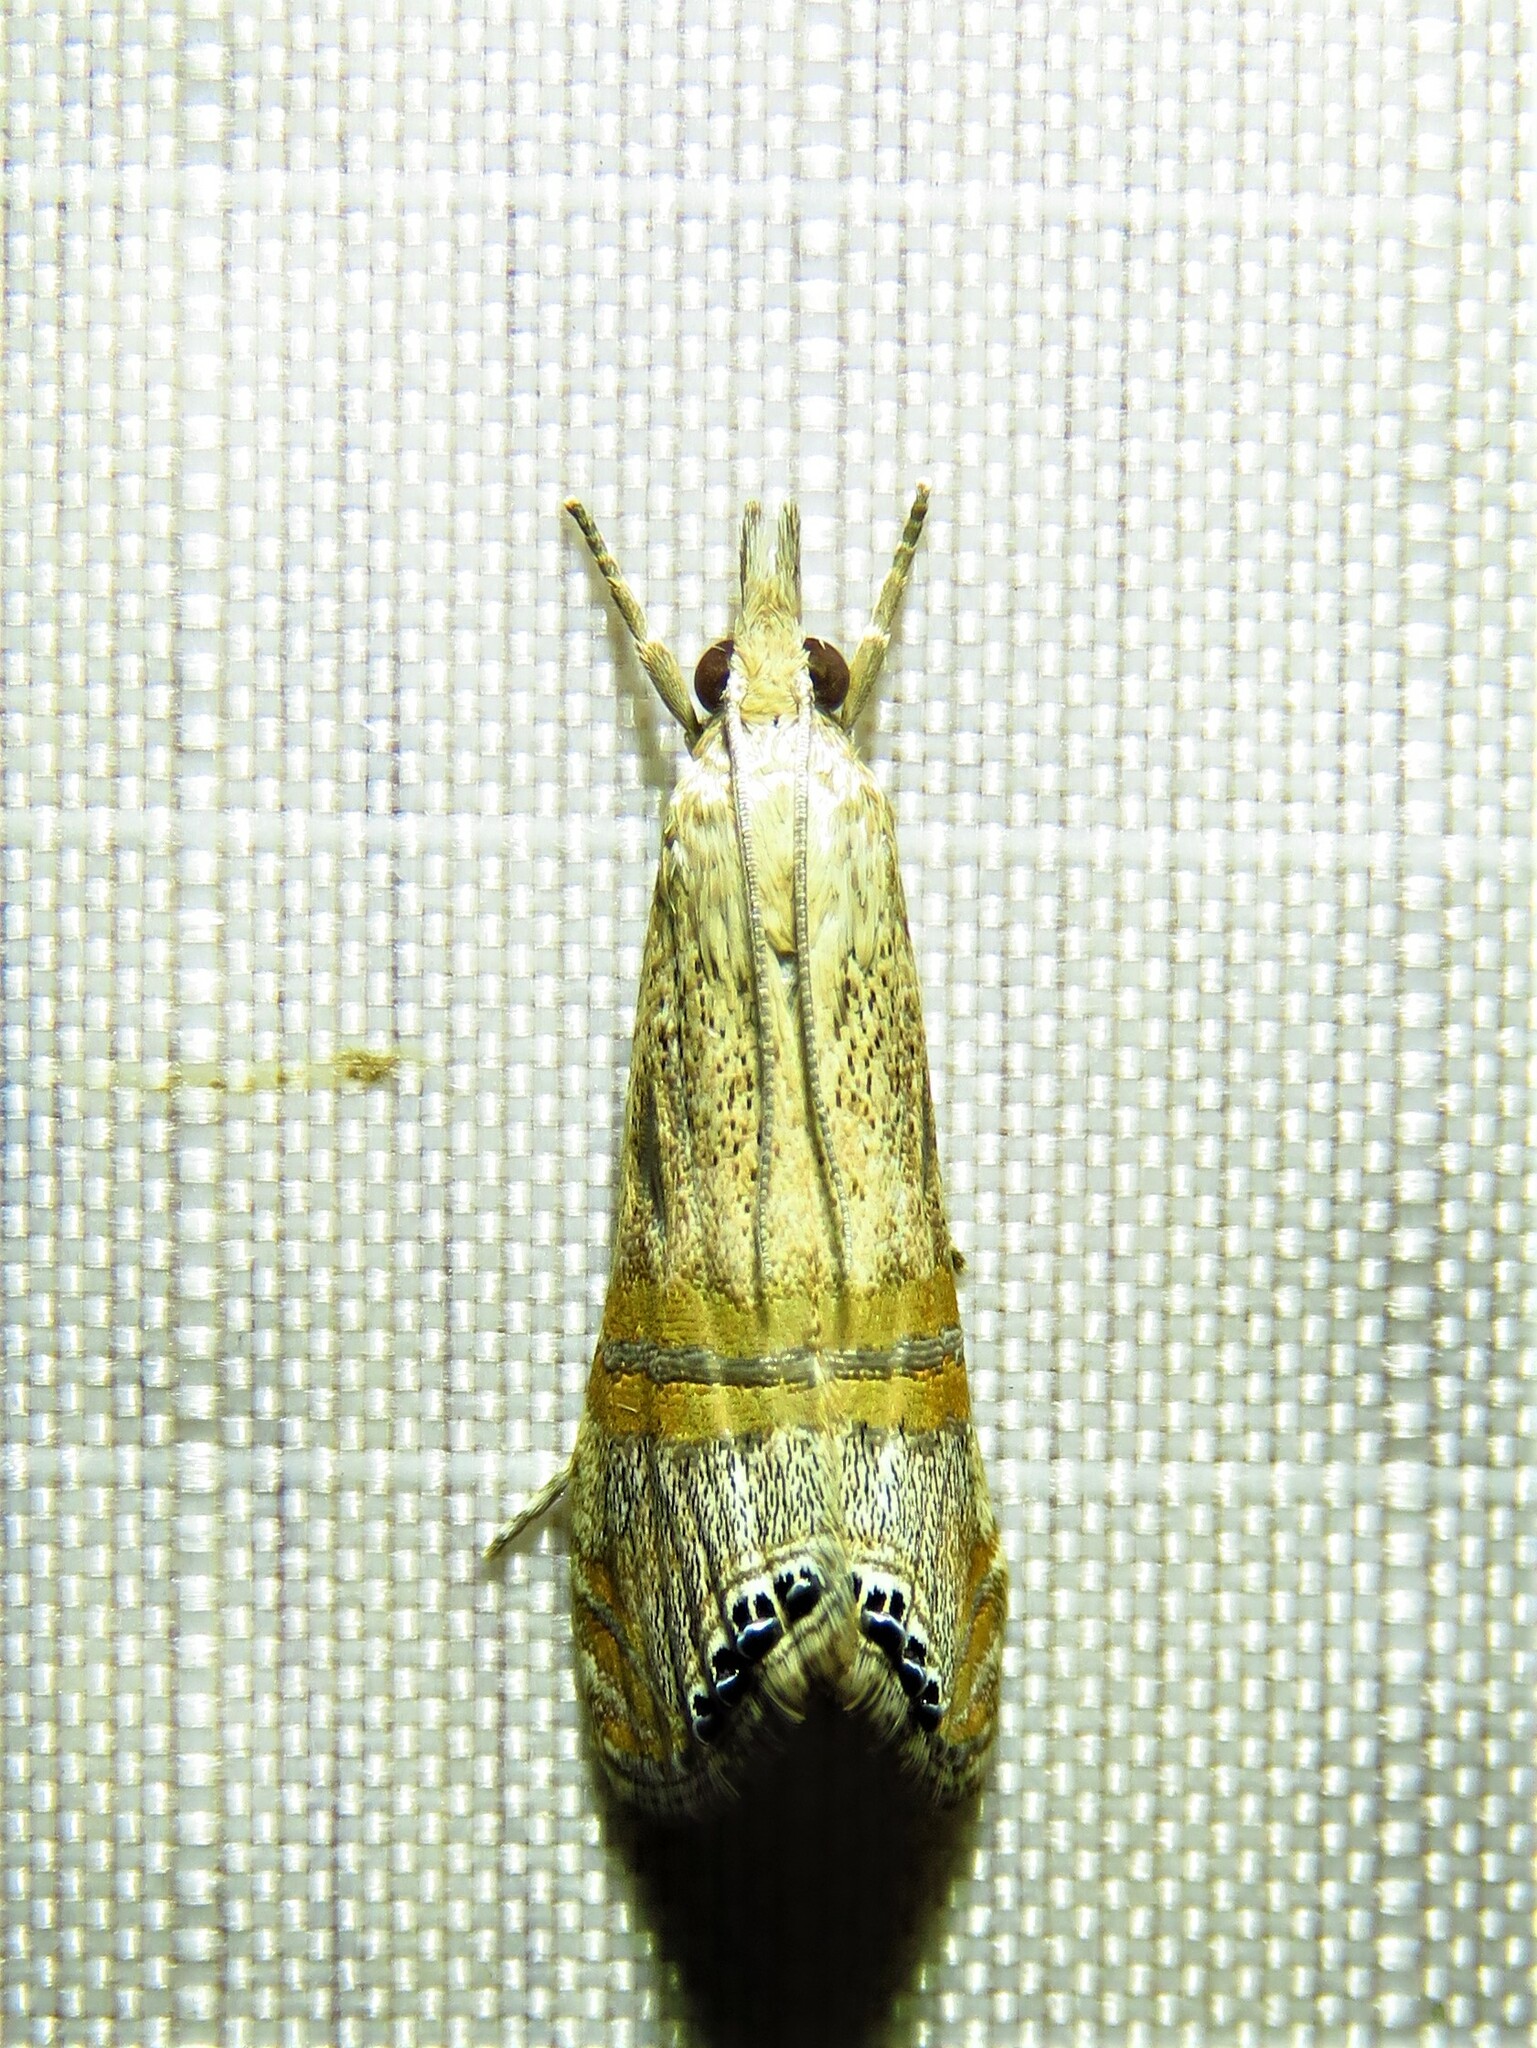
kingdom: Animalia
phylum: Arthropoda
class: Insecta
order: Lepidoptera
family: Crambidae
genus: Euchromius
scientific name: Euchromius ocellea
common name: Necklace veneer moth
